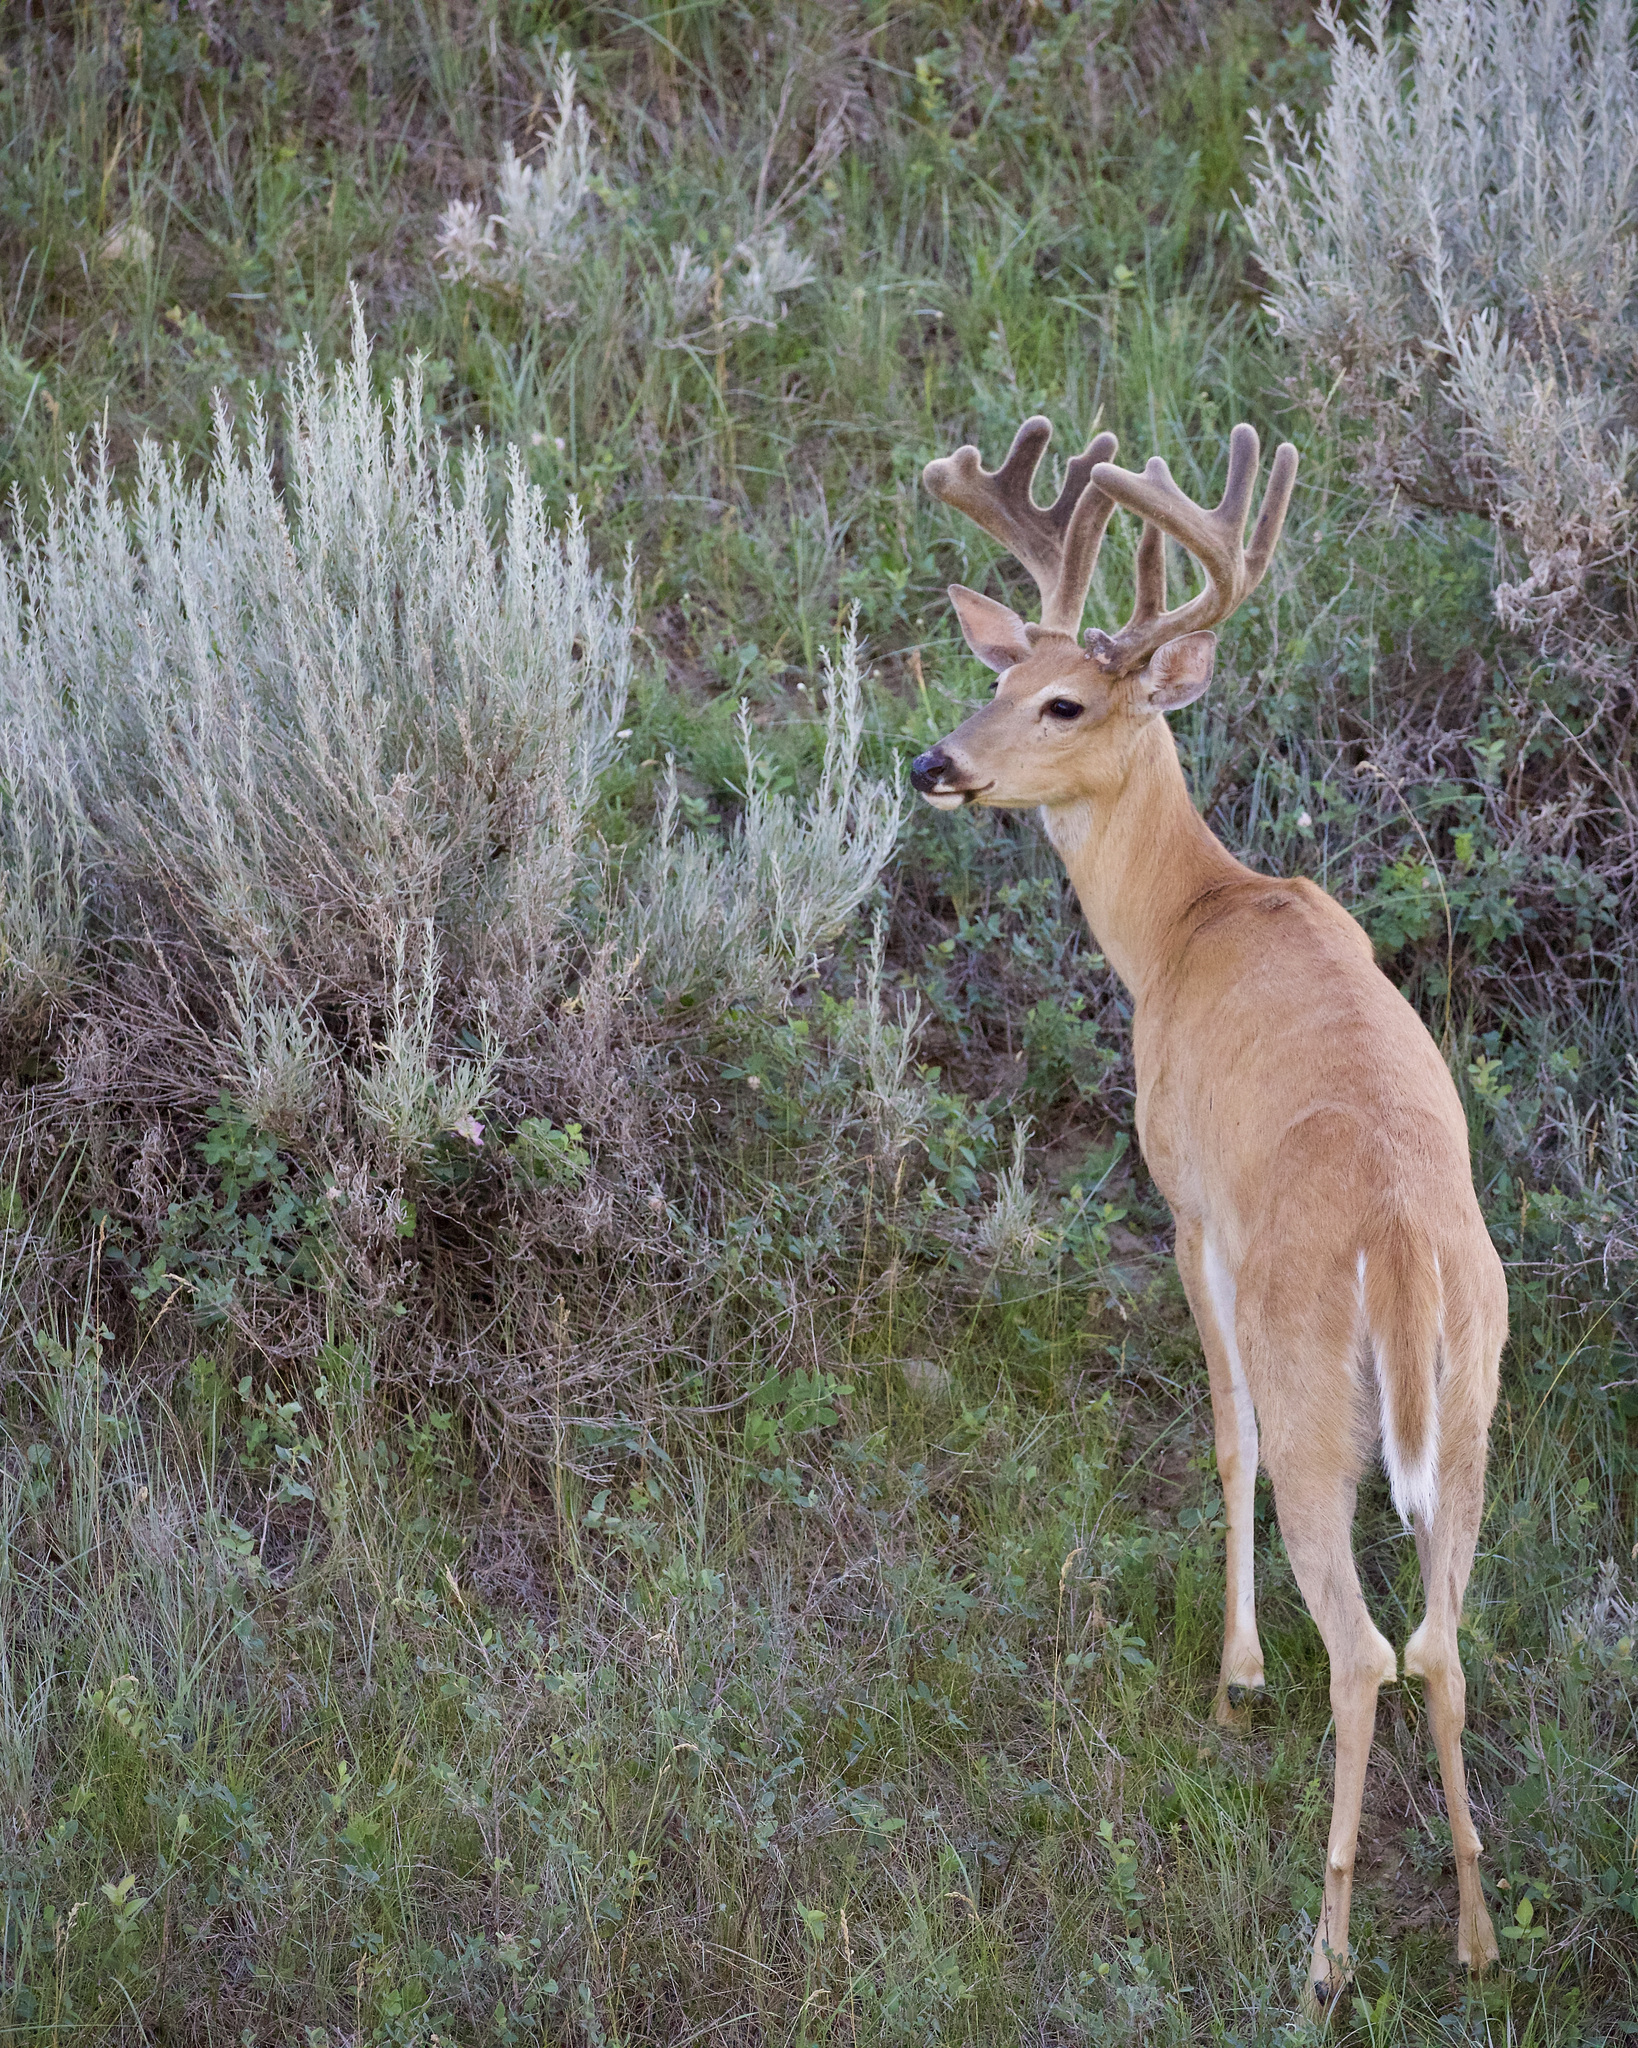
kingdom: Animalia
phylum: Chordata
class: Mammalia
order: Artiodactyla
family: Cervidae
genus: Odocoileus
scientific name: Odocoileus virginianus
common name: White-tailed deer
